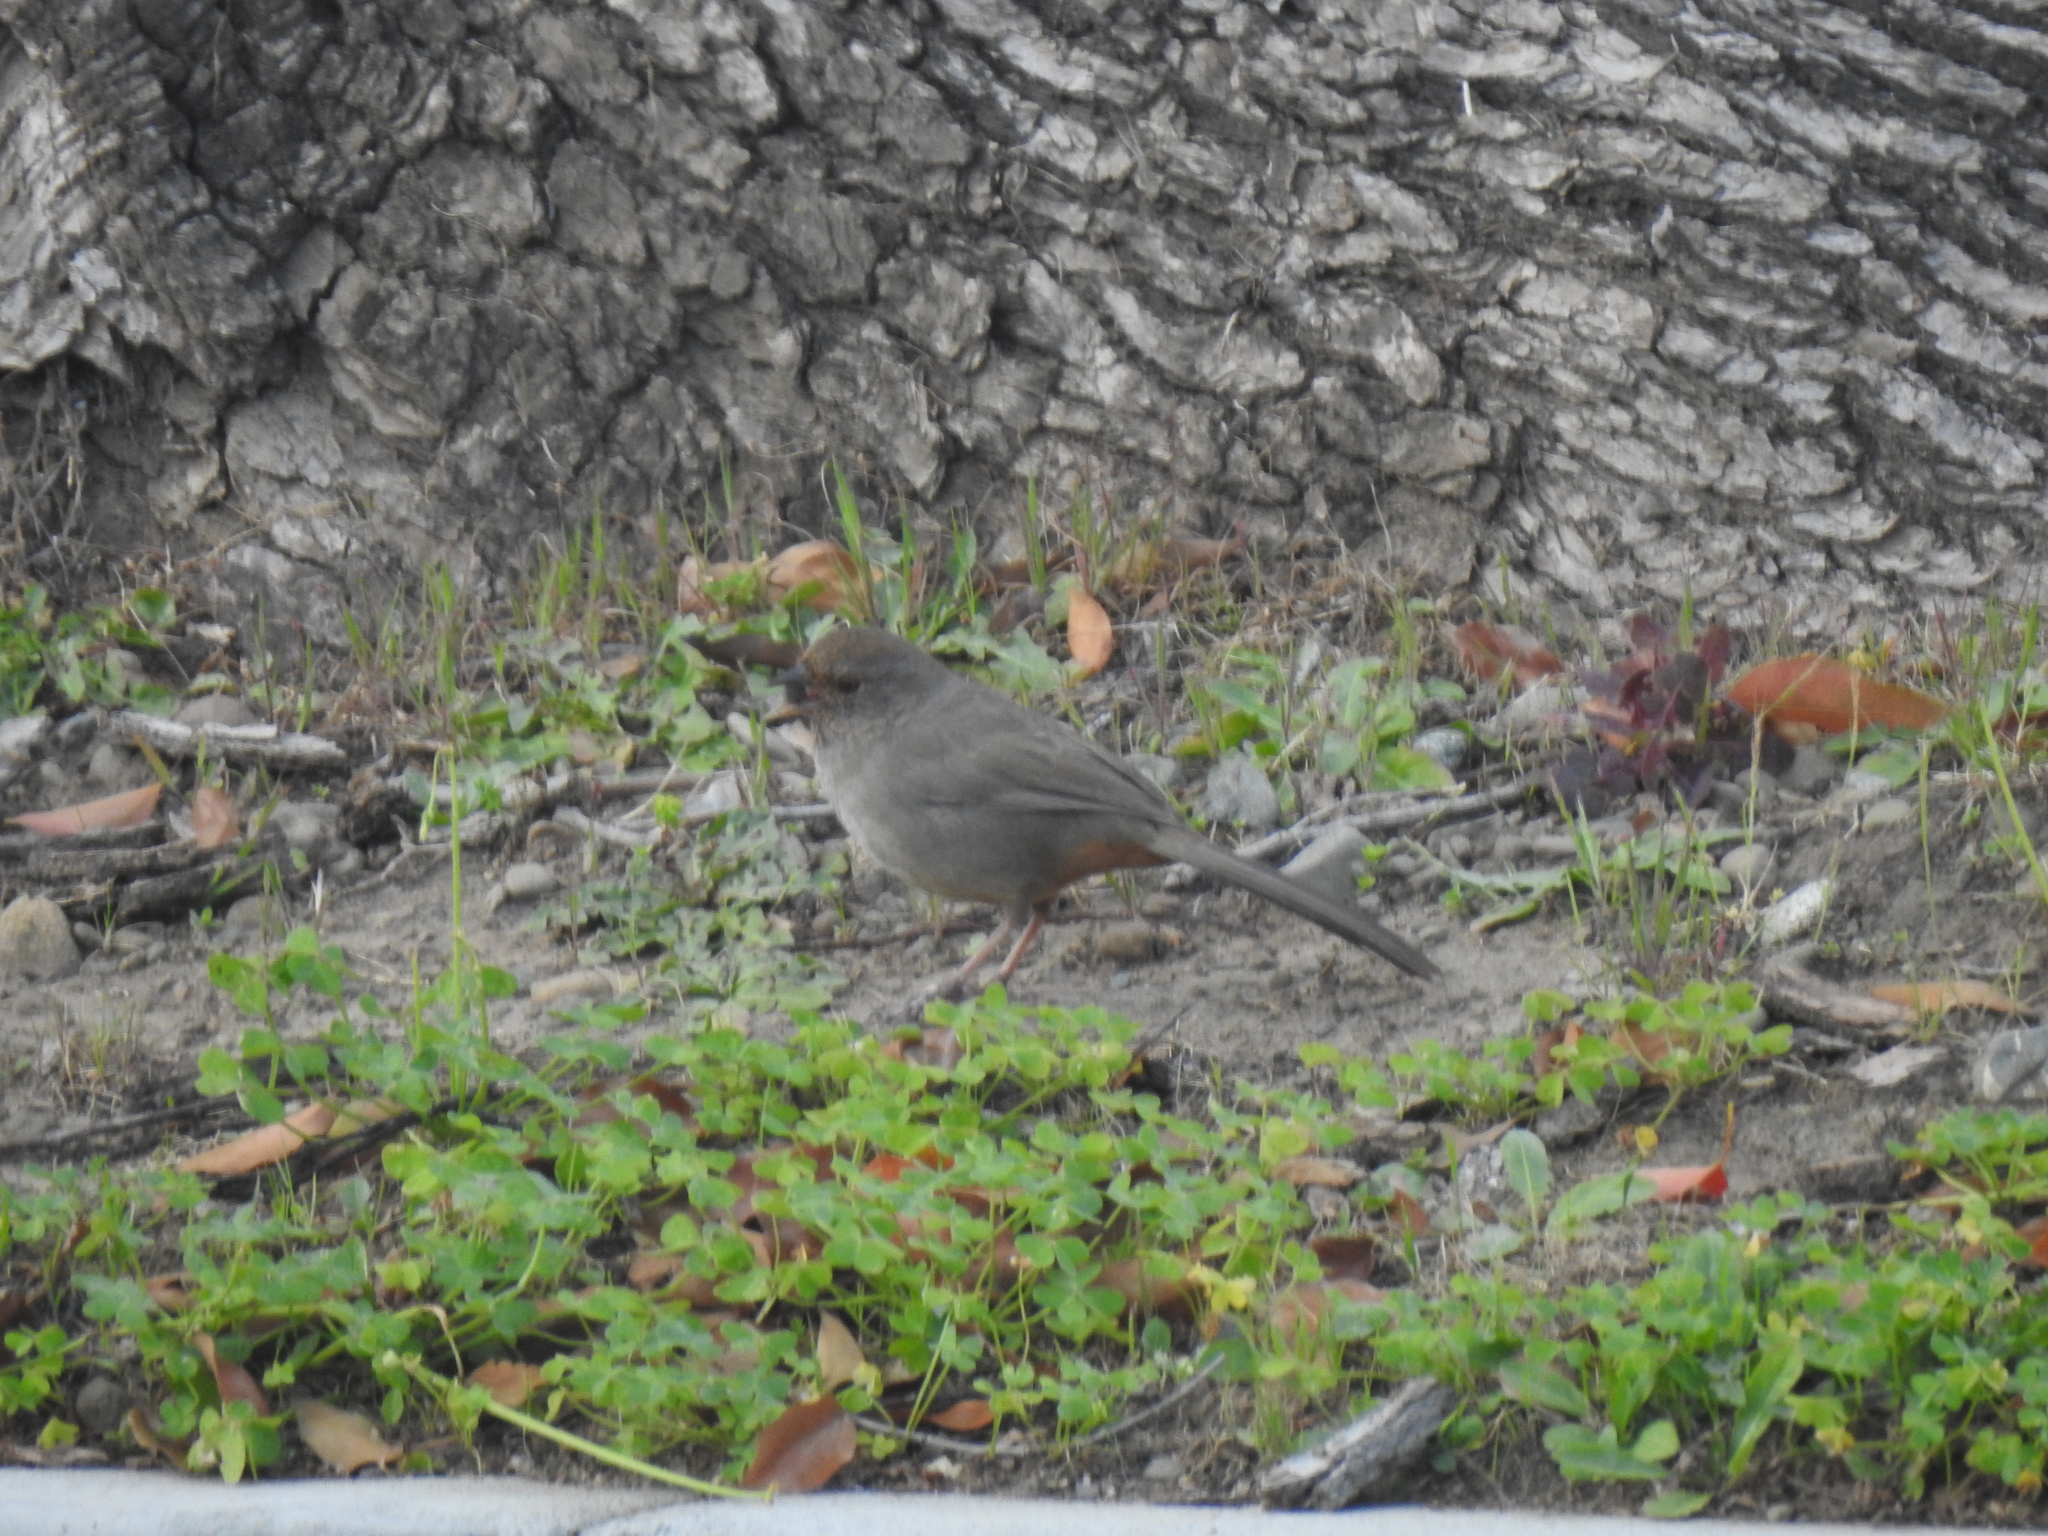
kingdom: Animalia
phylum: Chordata
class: Aves
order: Passeriformes
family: Passerellidae
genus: Melozone
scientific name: Melozone crissalis
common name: California towhee
